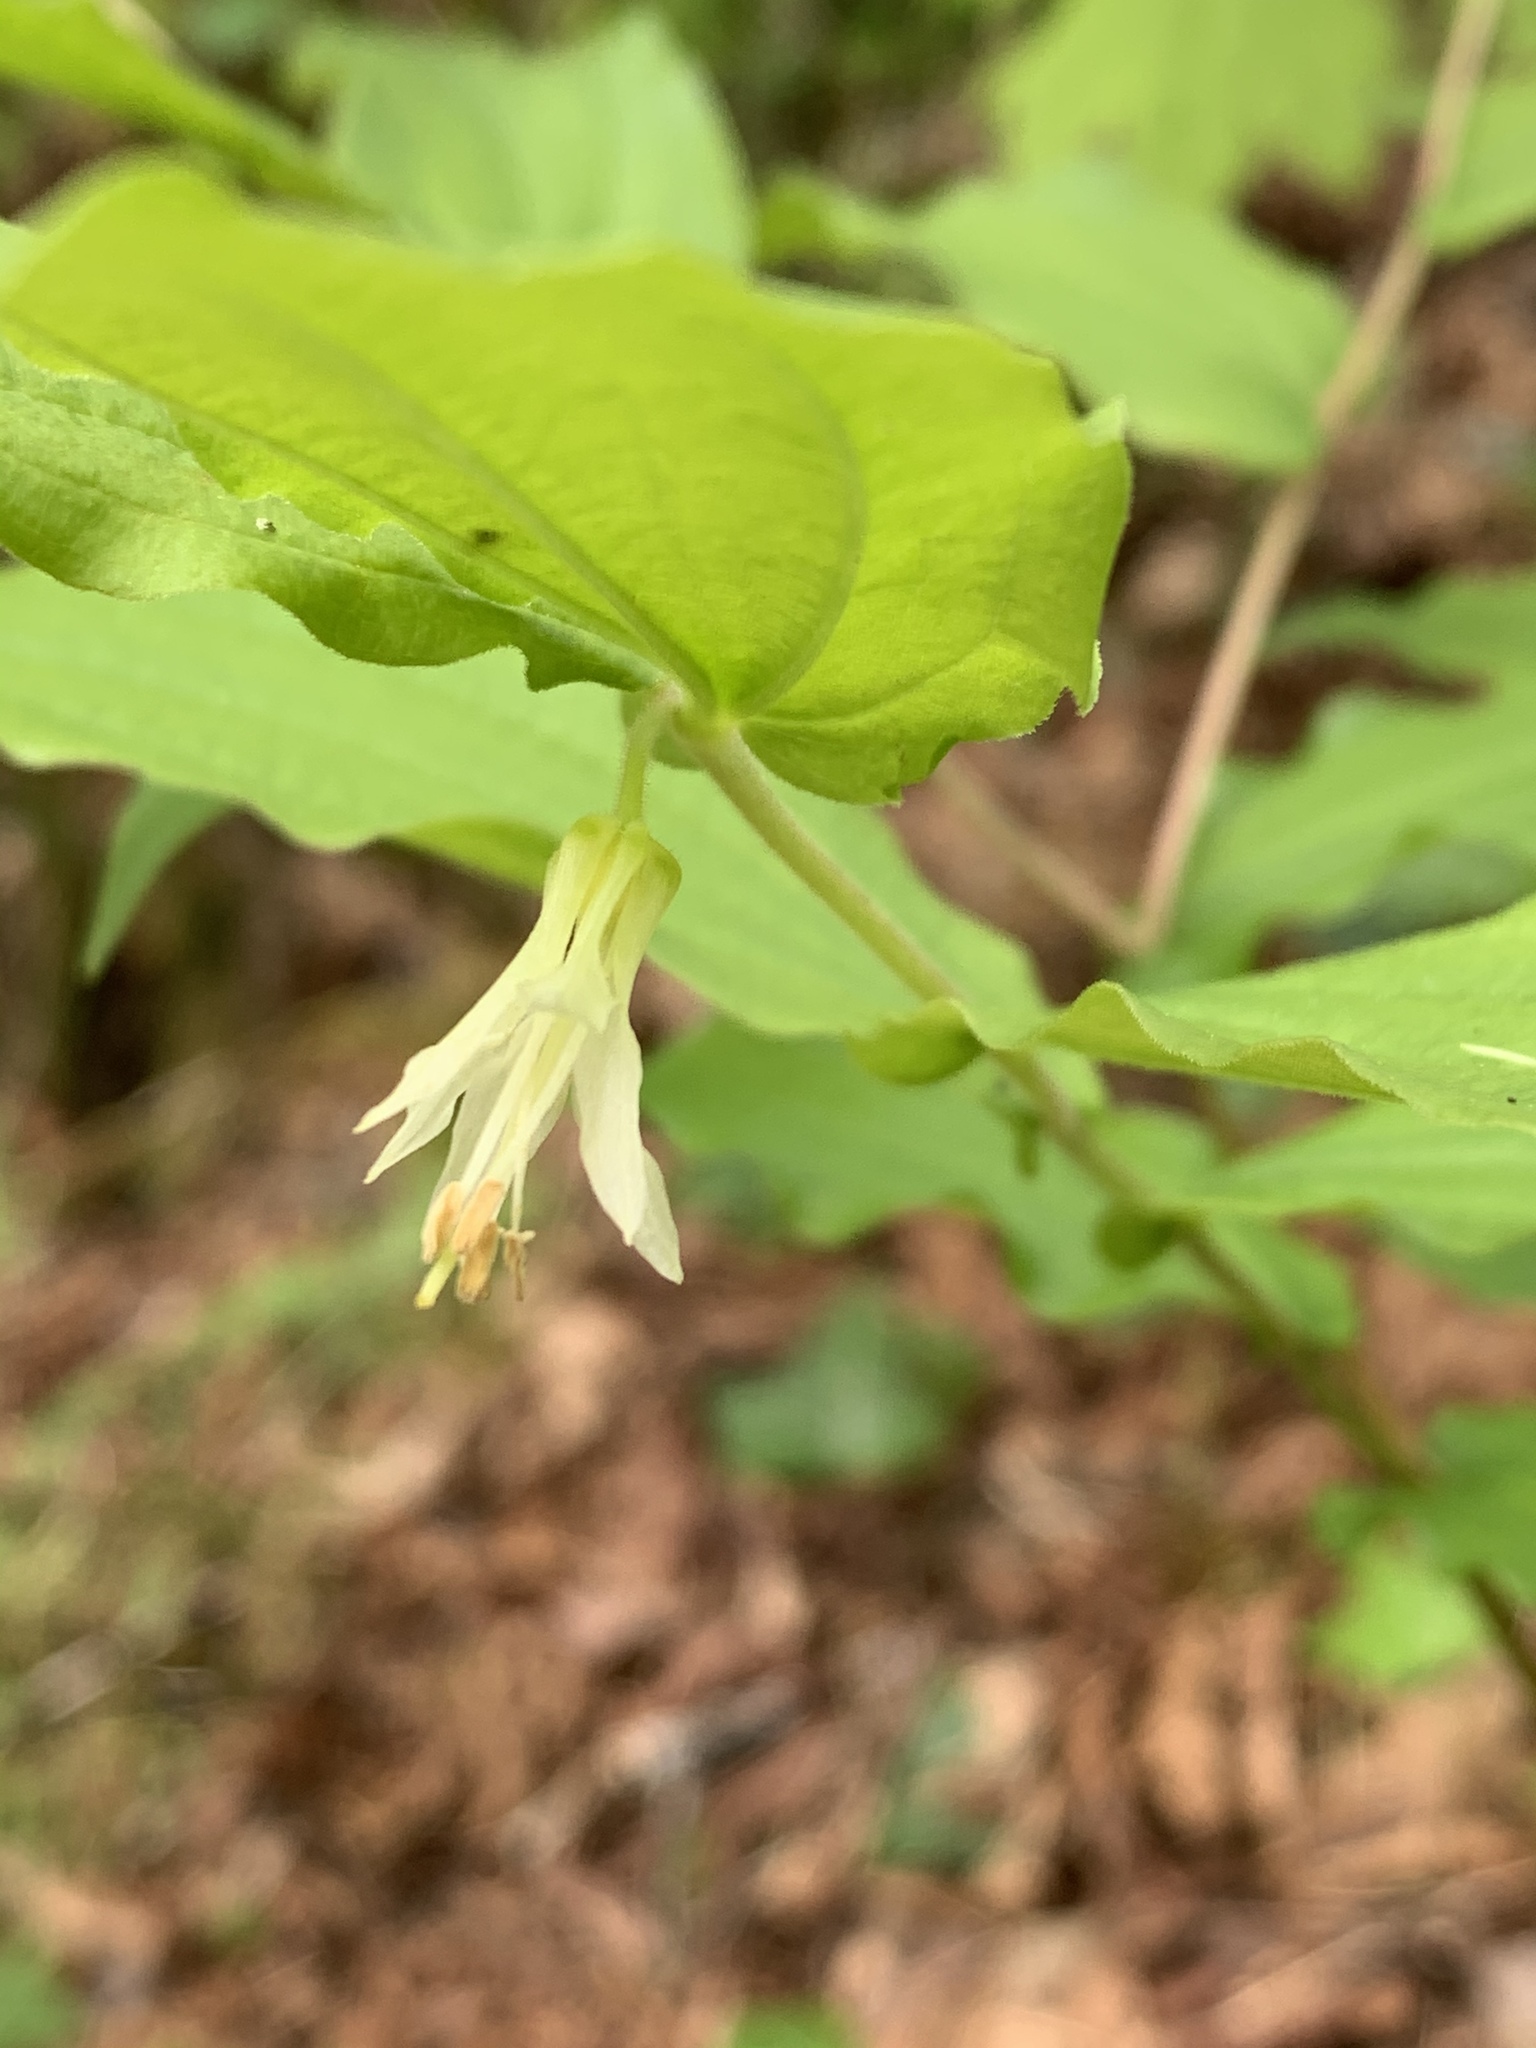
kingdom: Plantae
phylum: Tracheophyta
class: Liliopsida
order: Liliales
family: Liliaceae
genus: Prosartes
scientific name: Prosartes hookeri
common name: Fairy-bells
